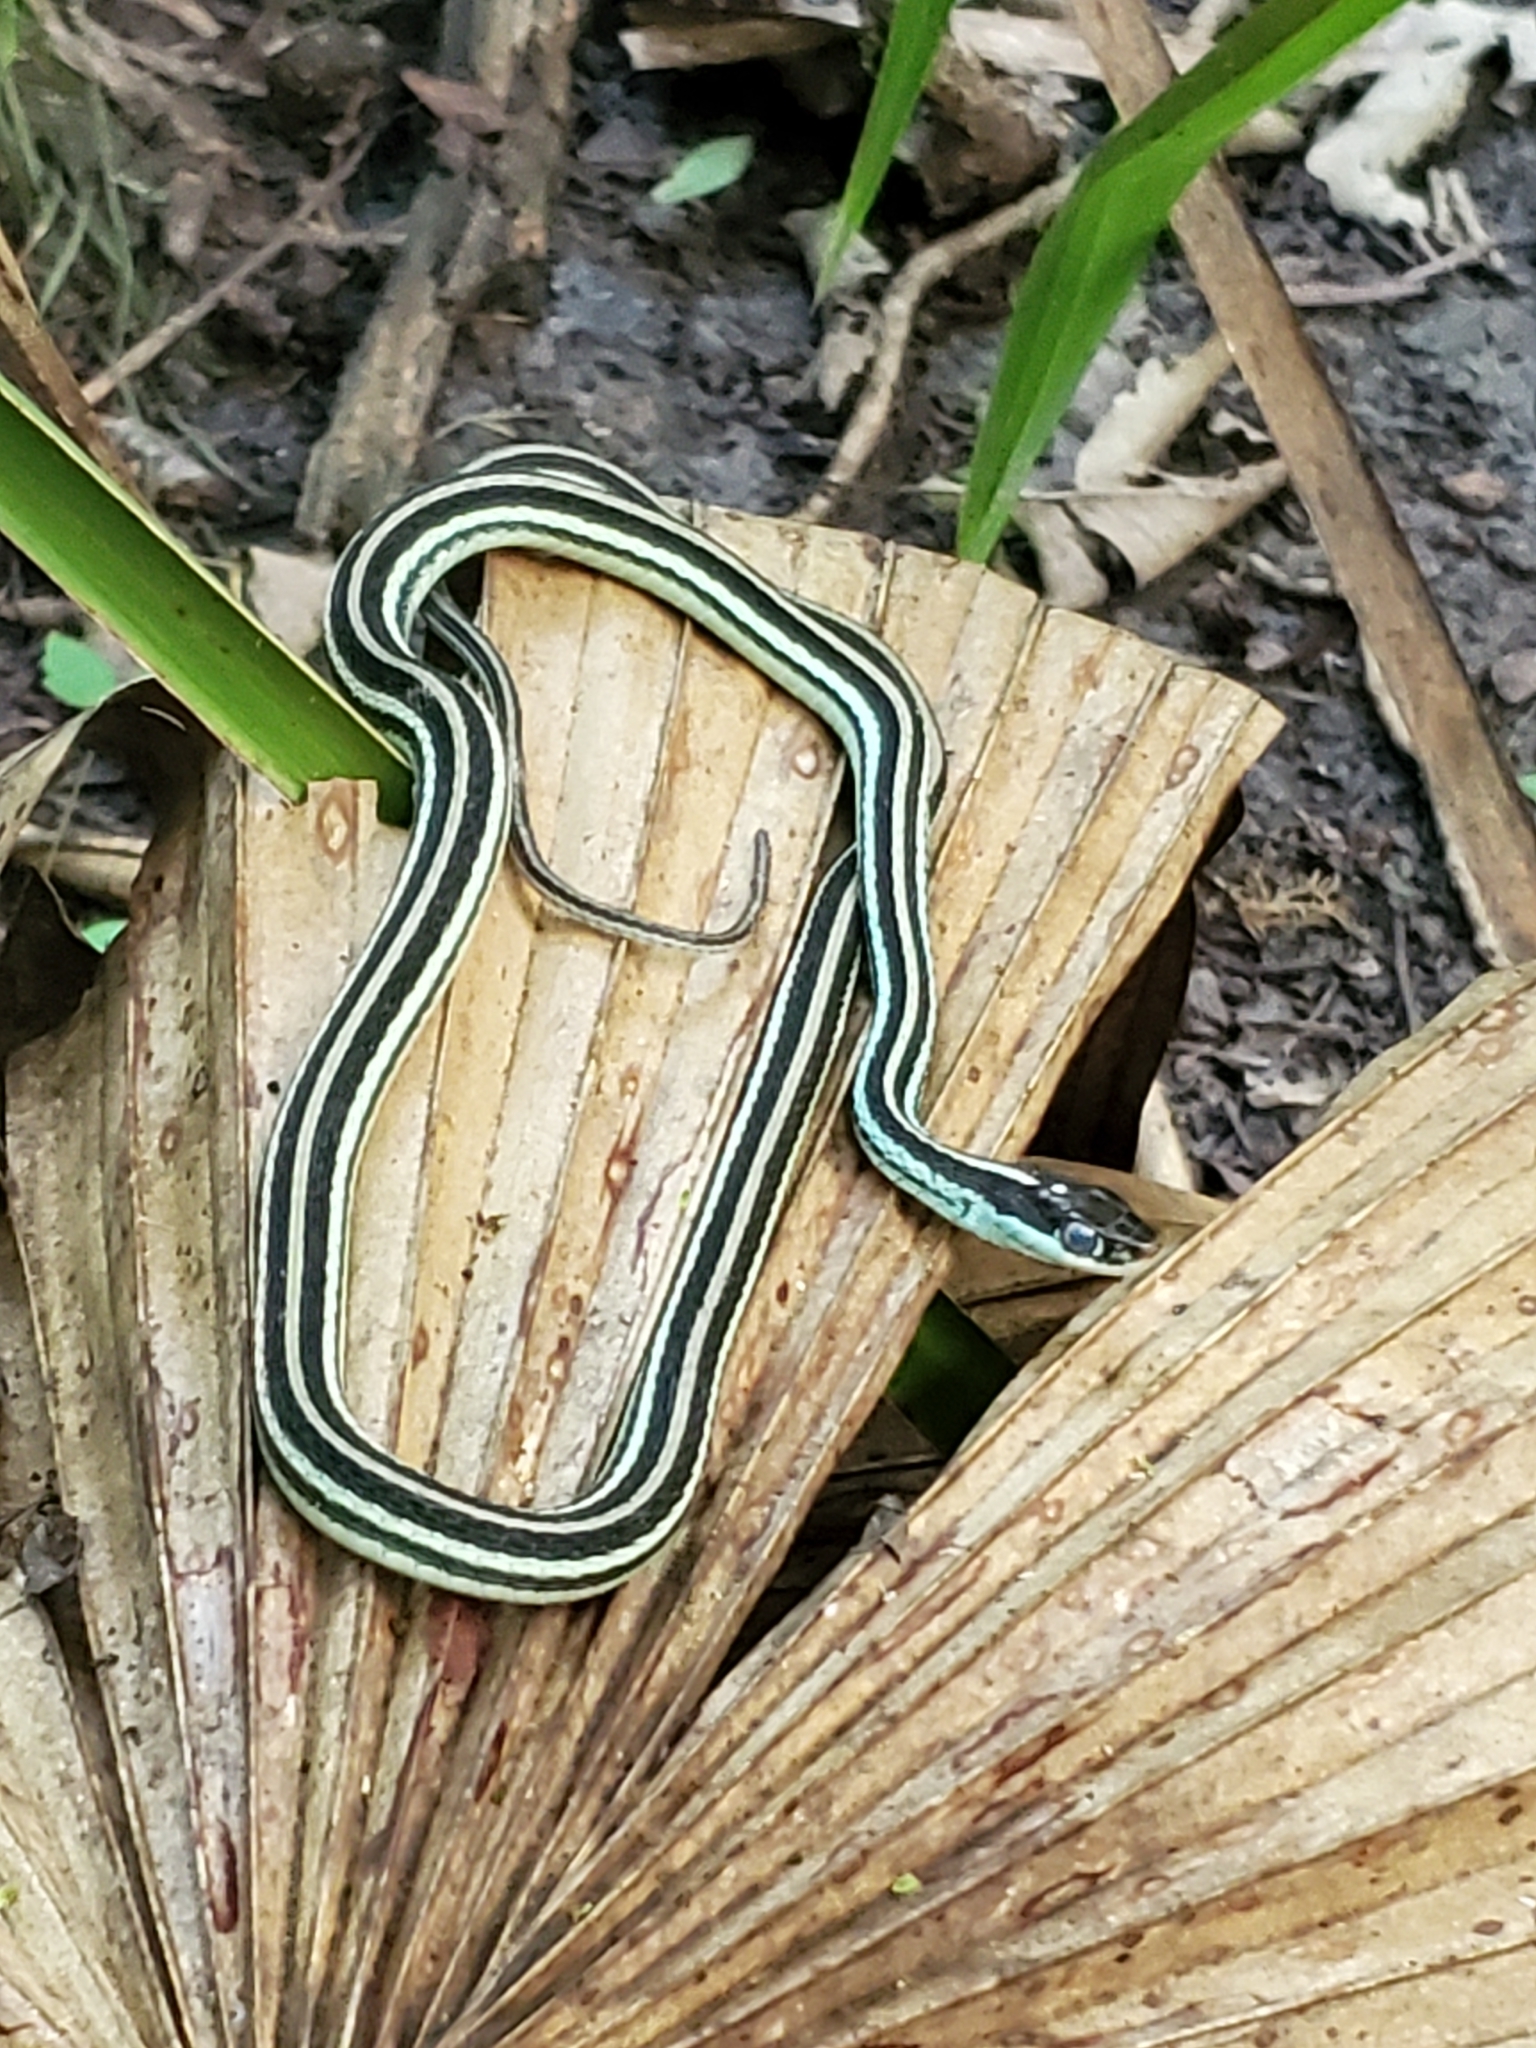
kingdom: Animalia
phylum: Chordata
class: Squamata
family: Colubridae
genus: Thamnophis
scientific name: Thamnophis proximus
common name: Western ribbon snake
